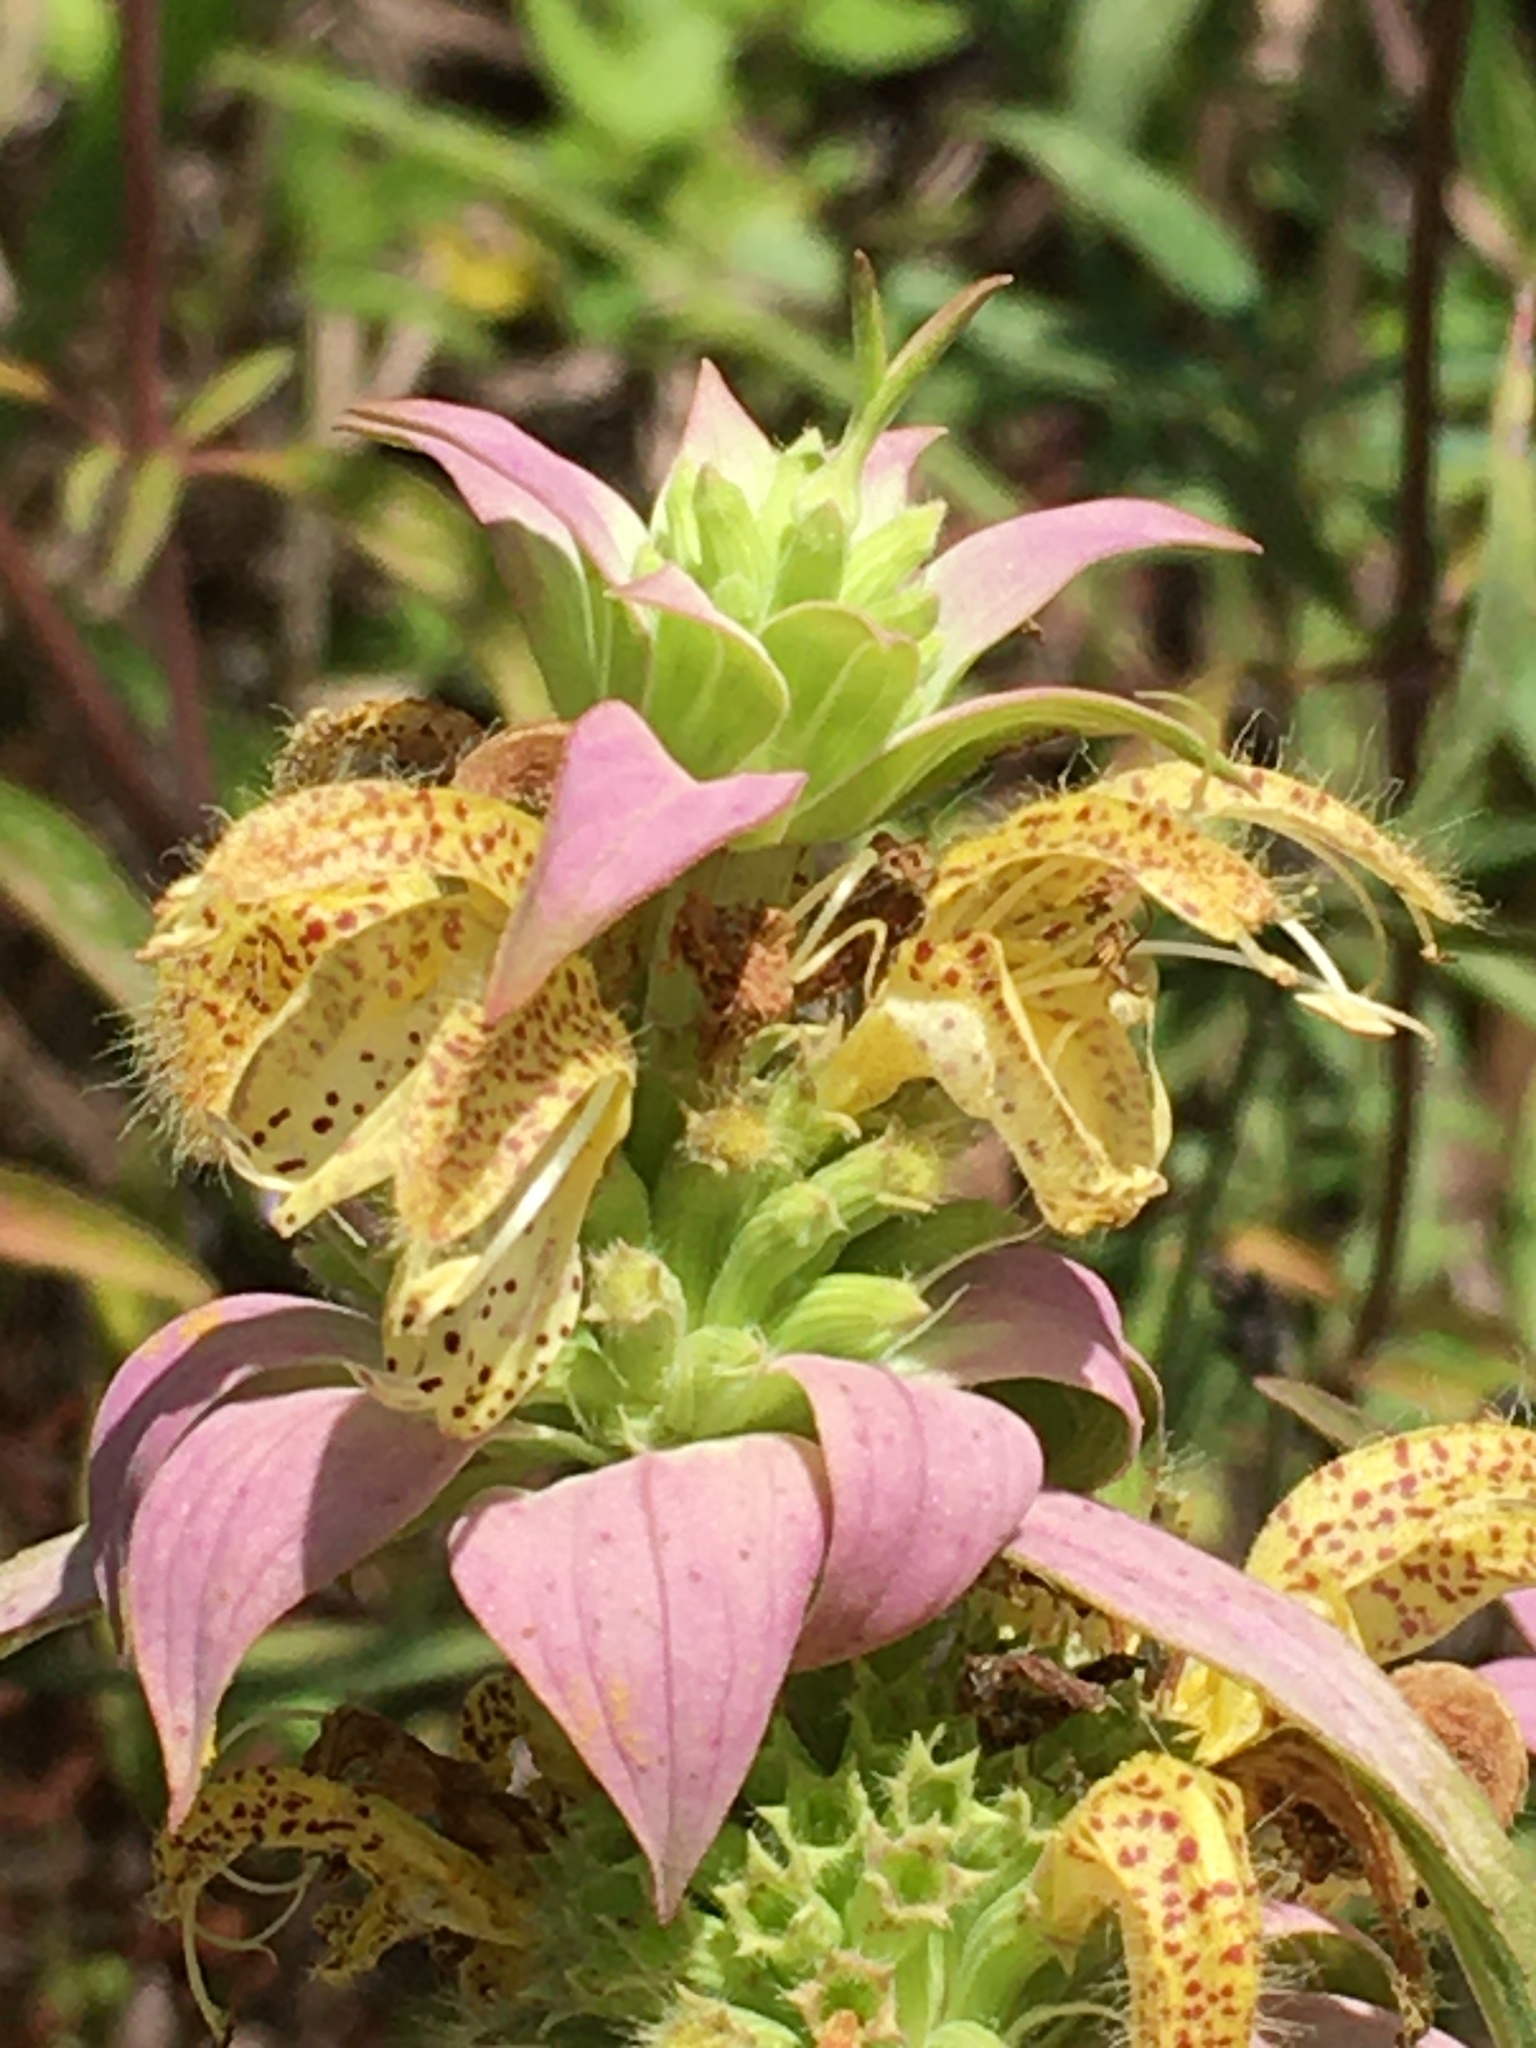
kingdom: Plantae
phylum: Tracheophyta
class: Magnoliopsida
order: Lamiales
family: Lamiaceae
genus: Monarda
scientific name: Monarda punctata
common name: Dotted monarda
